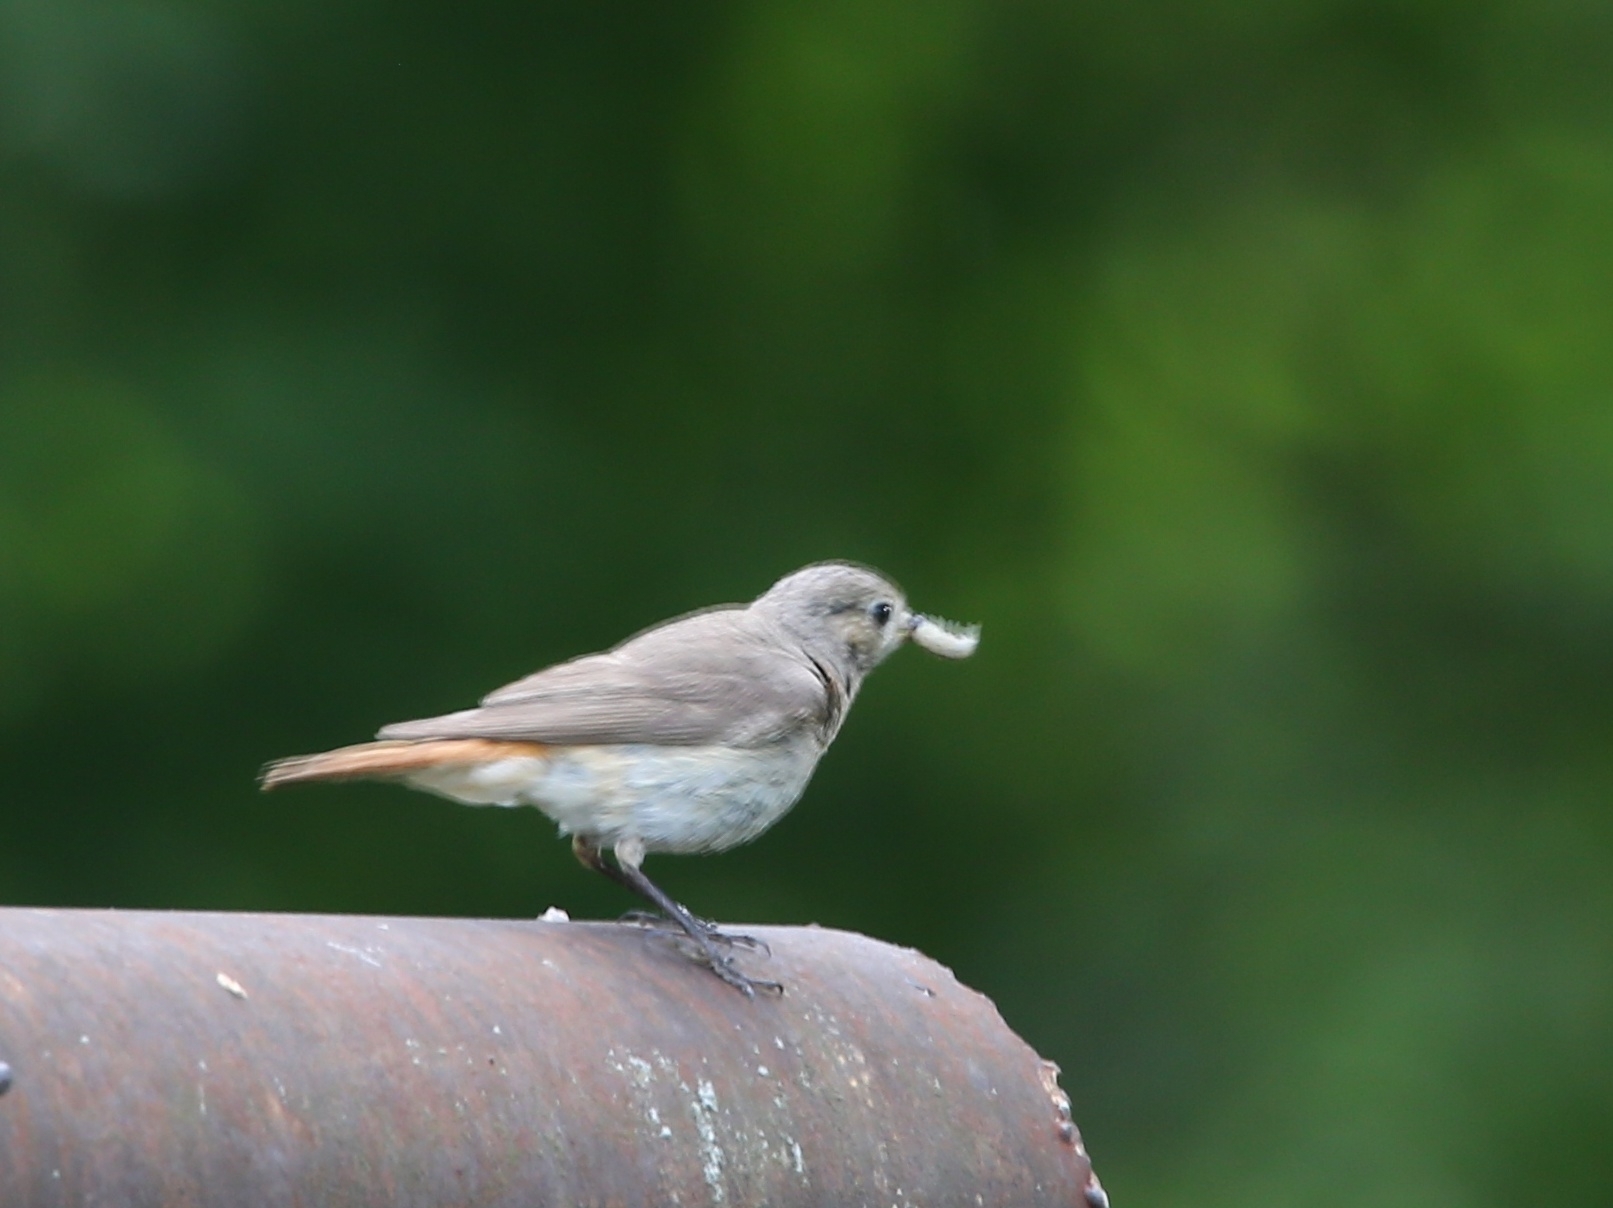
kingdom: Animalia
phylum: Chordata
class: Aves
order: Passeriformes
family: Muscicapidae
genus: Phoenicurus
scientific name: Phoenicurus phoenicurus
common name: Common redstart
